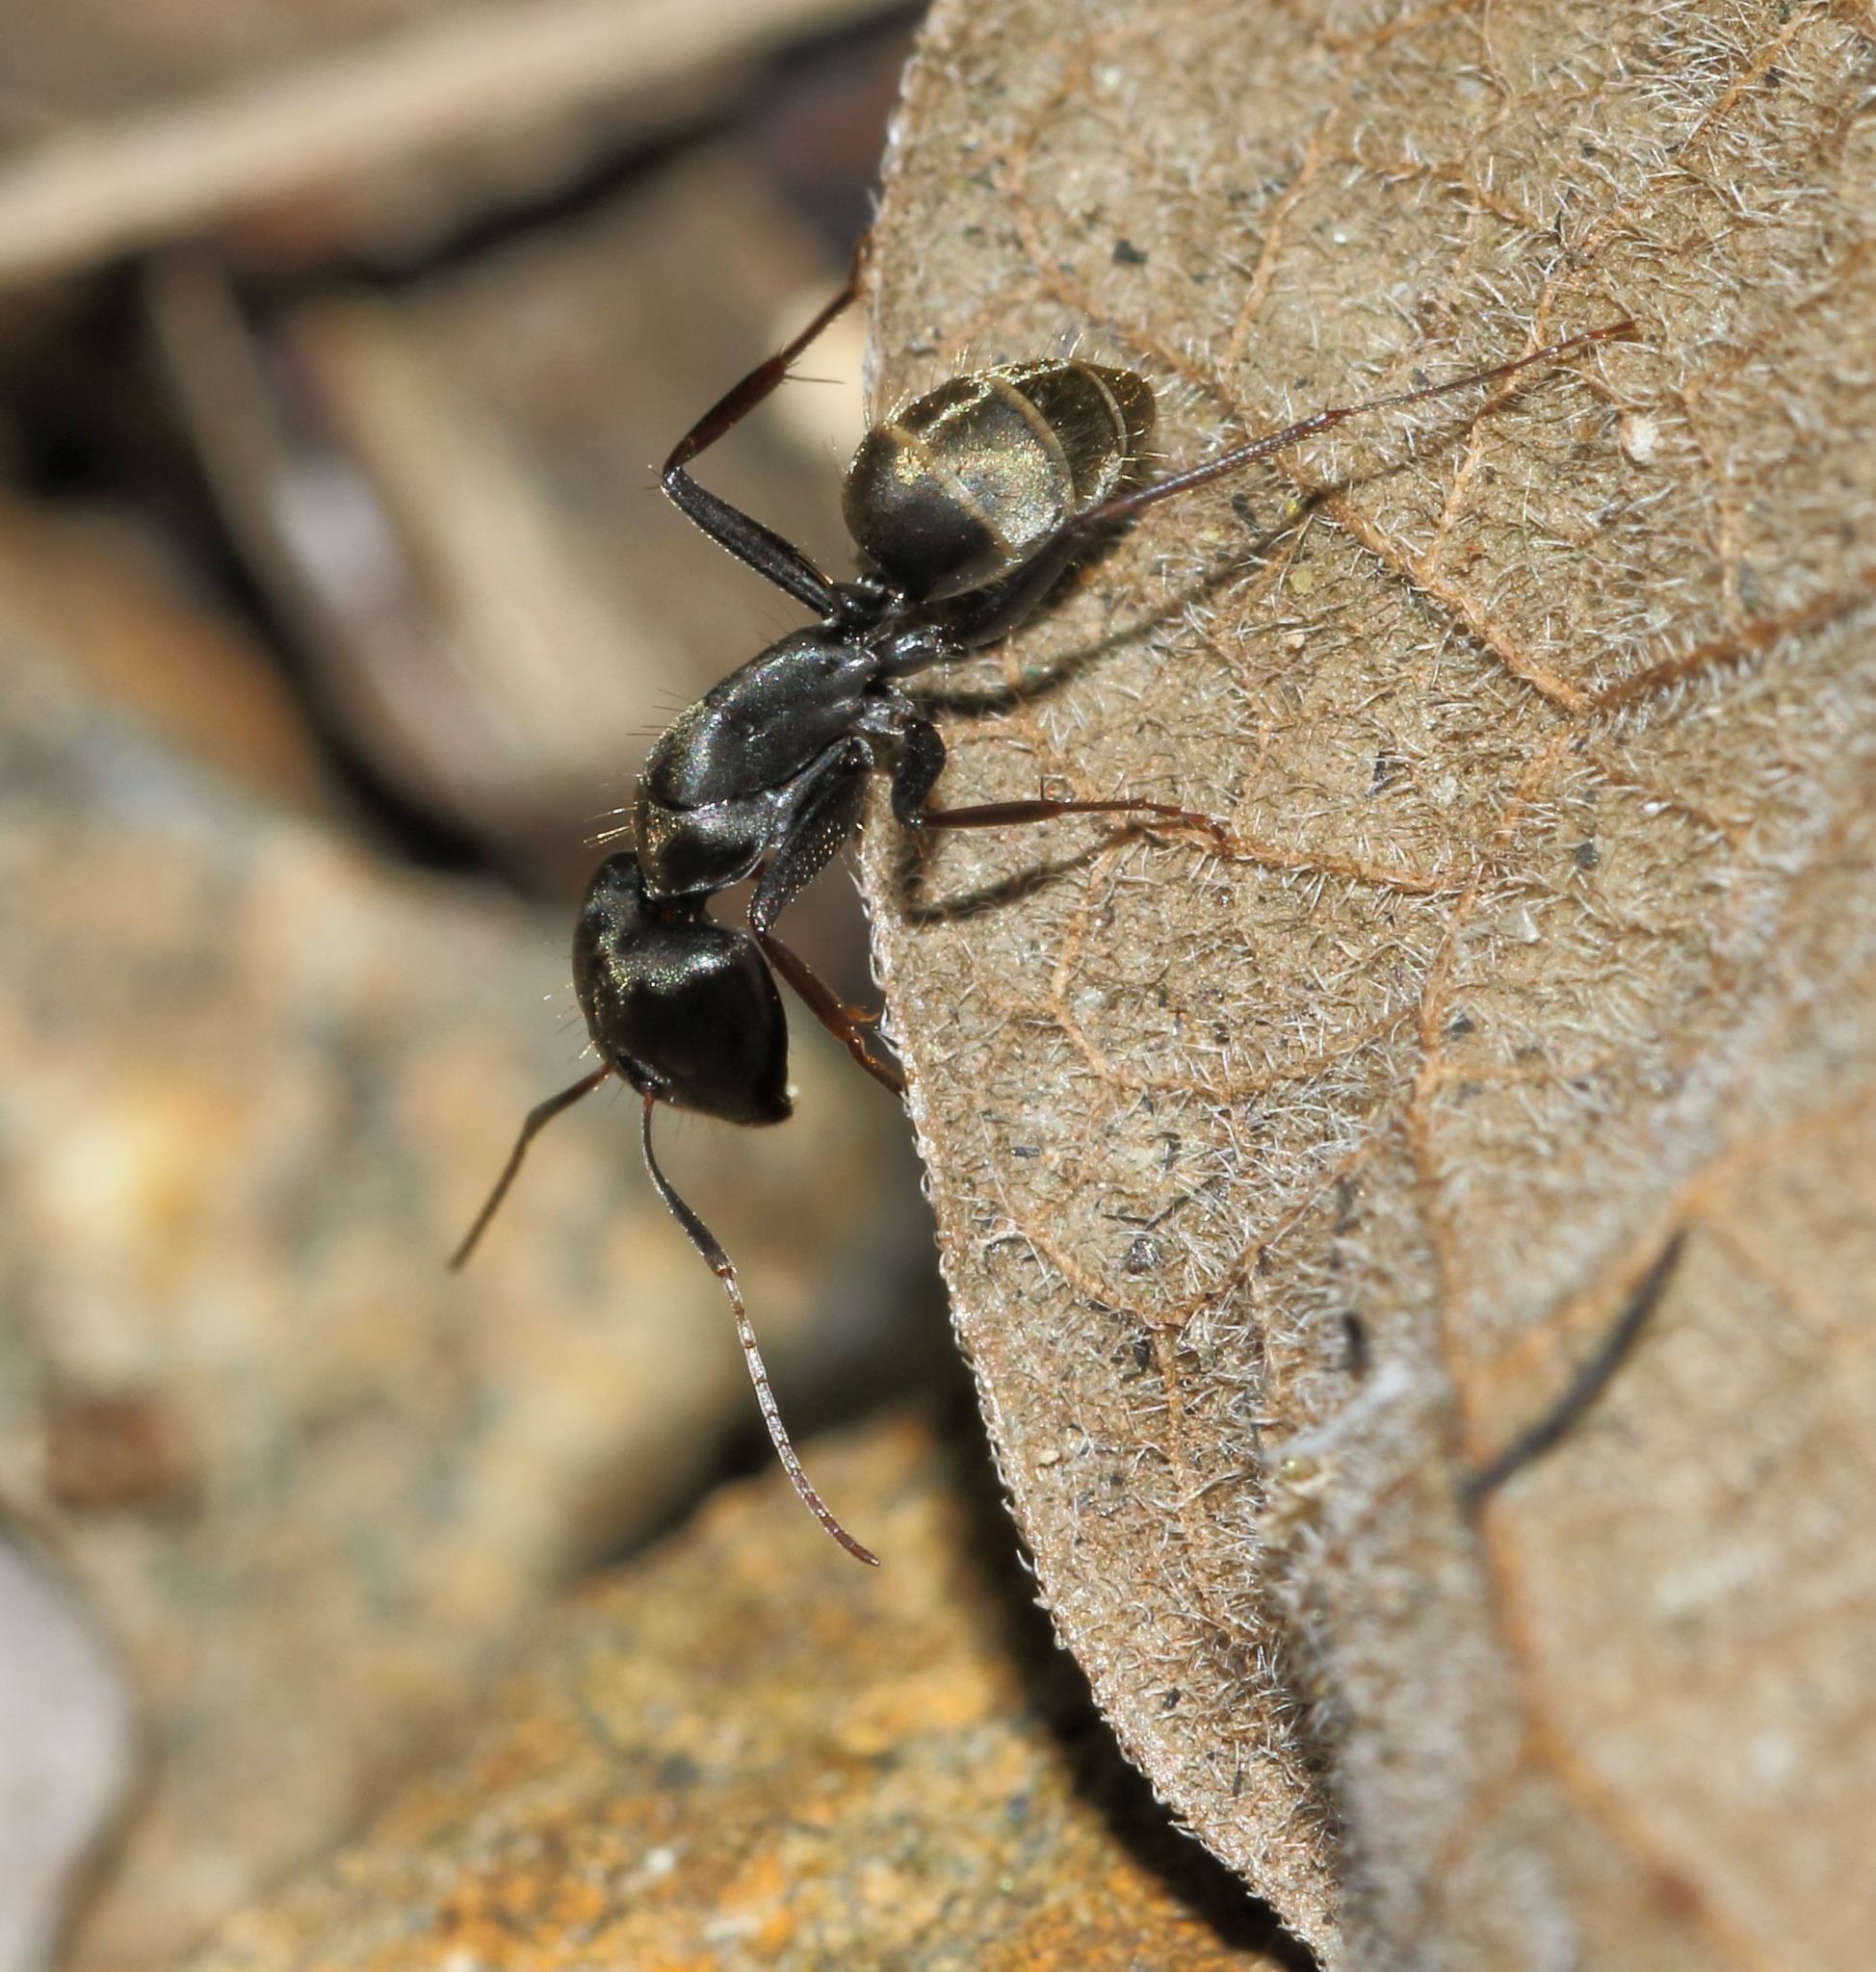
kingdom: Animalia
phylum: Arthropoda
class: Insecta
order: Hymenoptera
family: Formicidae
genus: Camponotus
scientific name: Camponotus cinctellus
